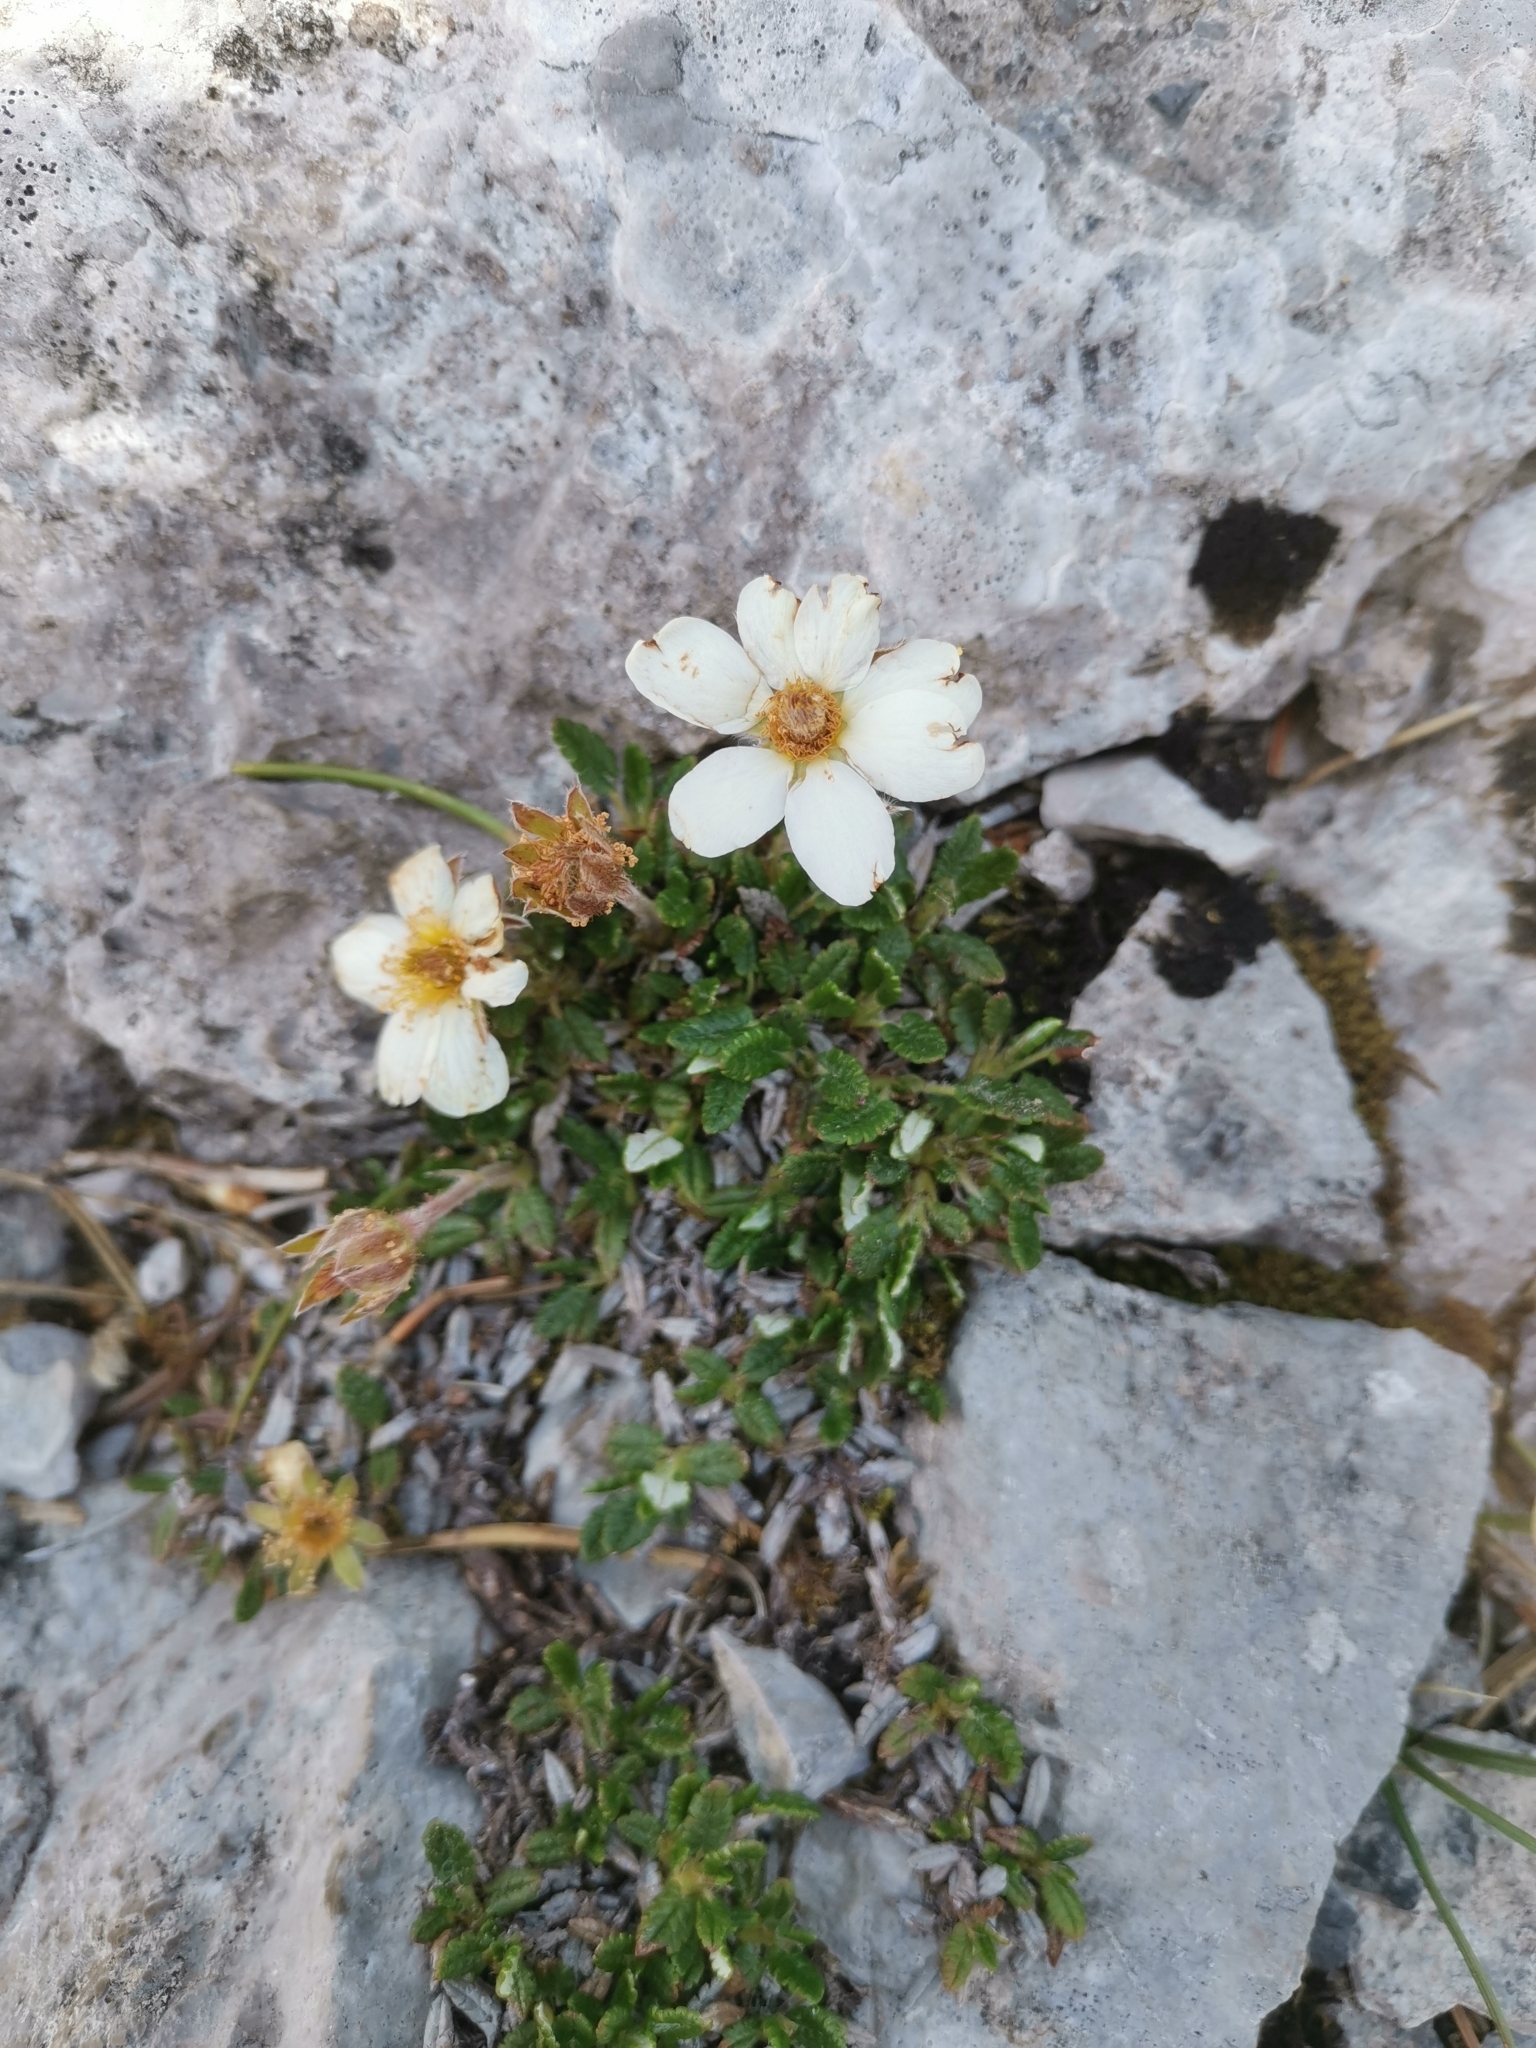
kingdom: Plantae
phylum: Tracheophyta
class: Magnoliopsida
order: Rosales
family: Rosaceae
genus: Dryas
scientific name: Dryas octopetala
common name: Eight-petal mountain-avens
